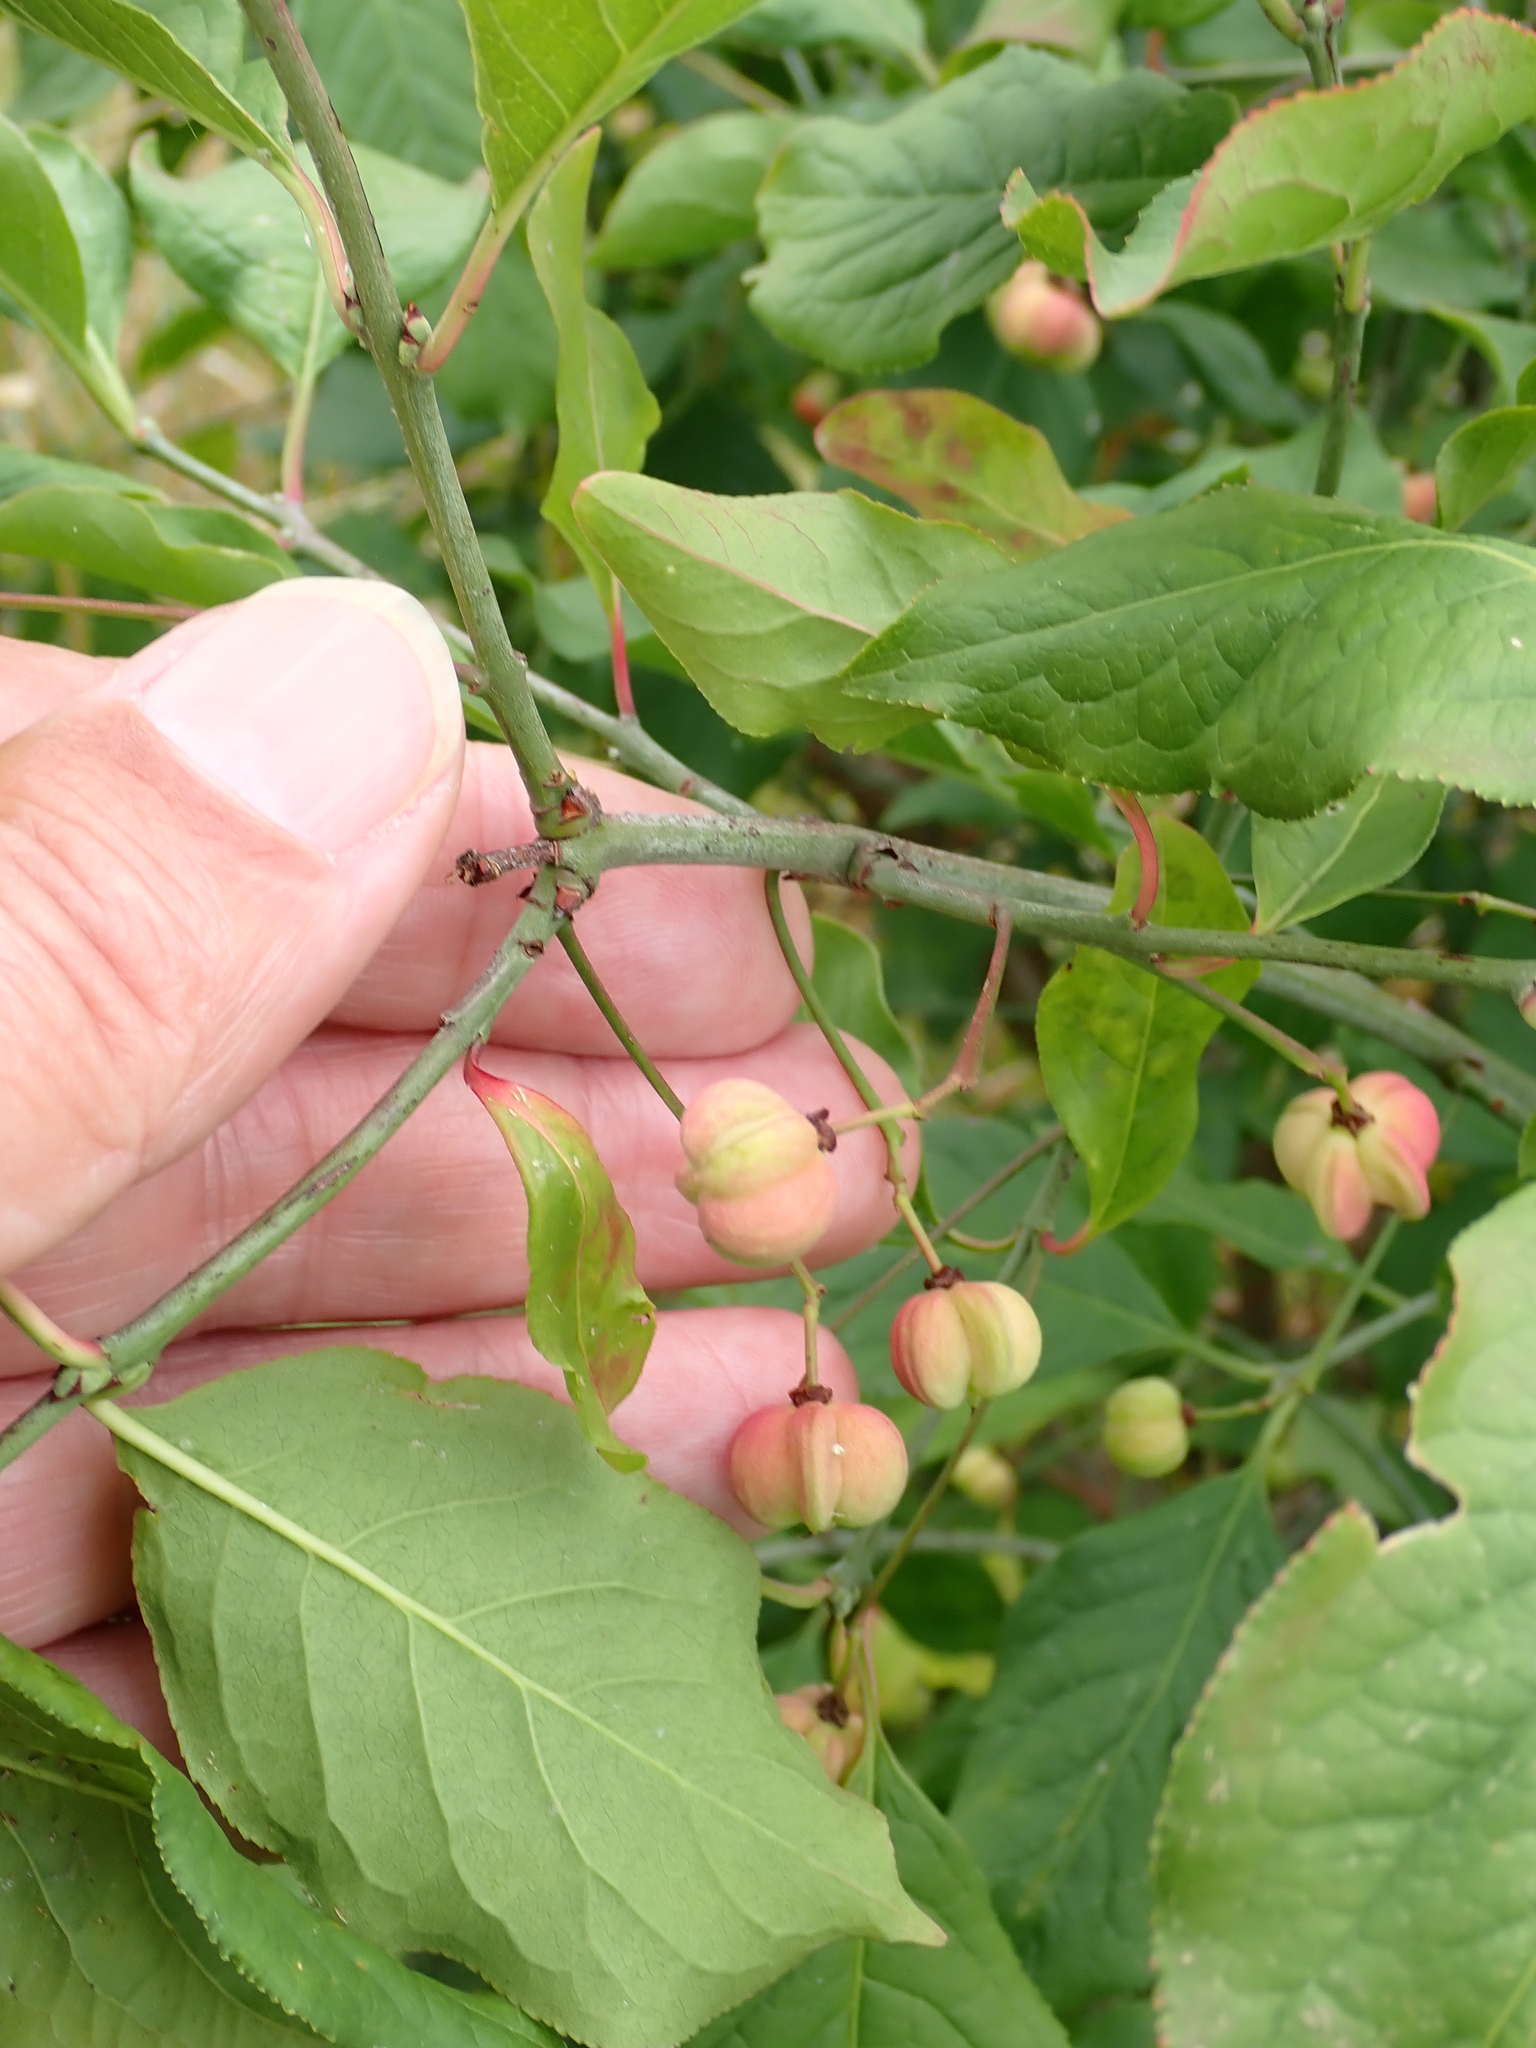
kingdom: Plantae
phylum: Tracheophyta
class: Magnoliopsida
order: Celastrales
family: Celastraceae
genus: Euonymus
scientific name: Euonymus europaeus
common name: Spindle
